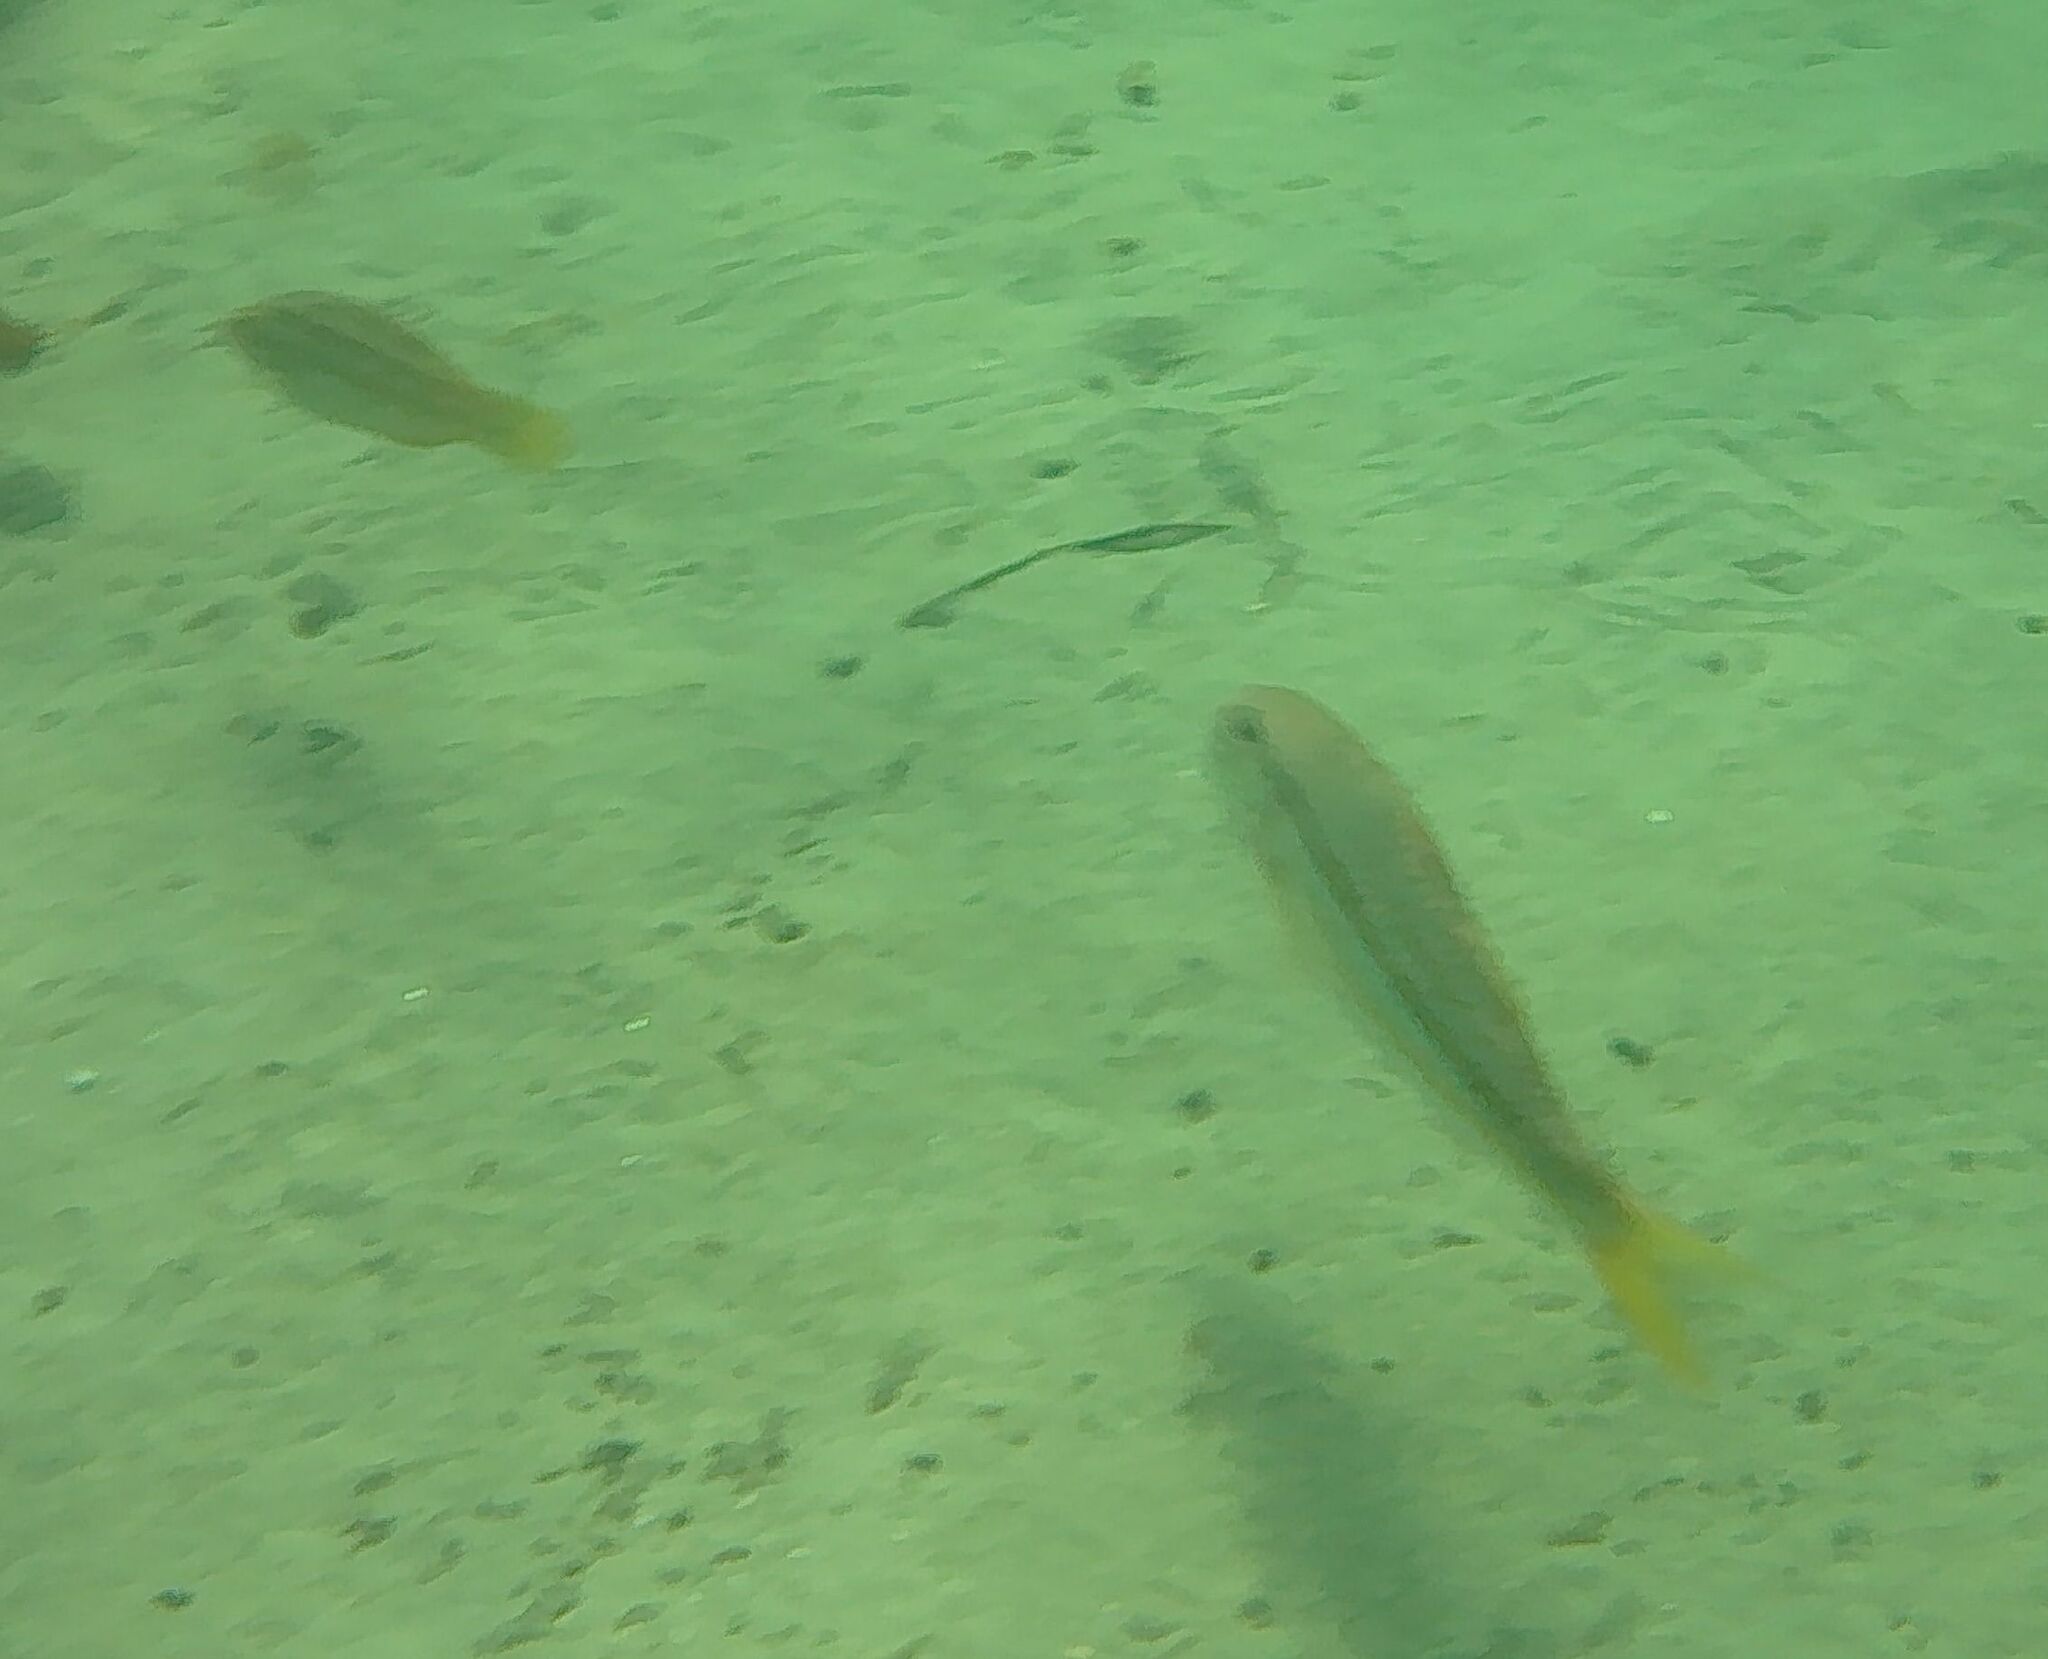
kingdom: Animalia
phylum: Chordata
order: Perciformes
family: Mullidae
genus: Mullus
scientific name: Mullus surmuletus
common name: Red mullet
